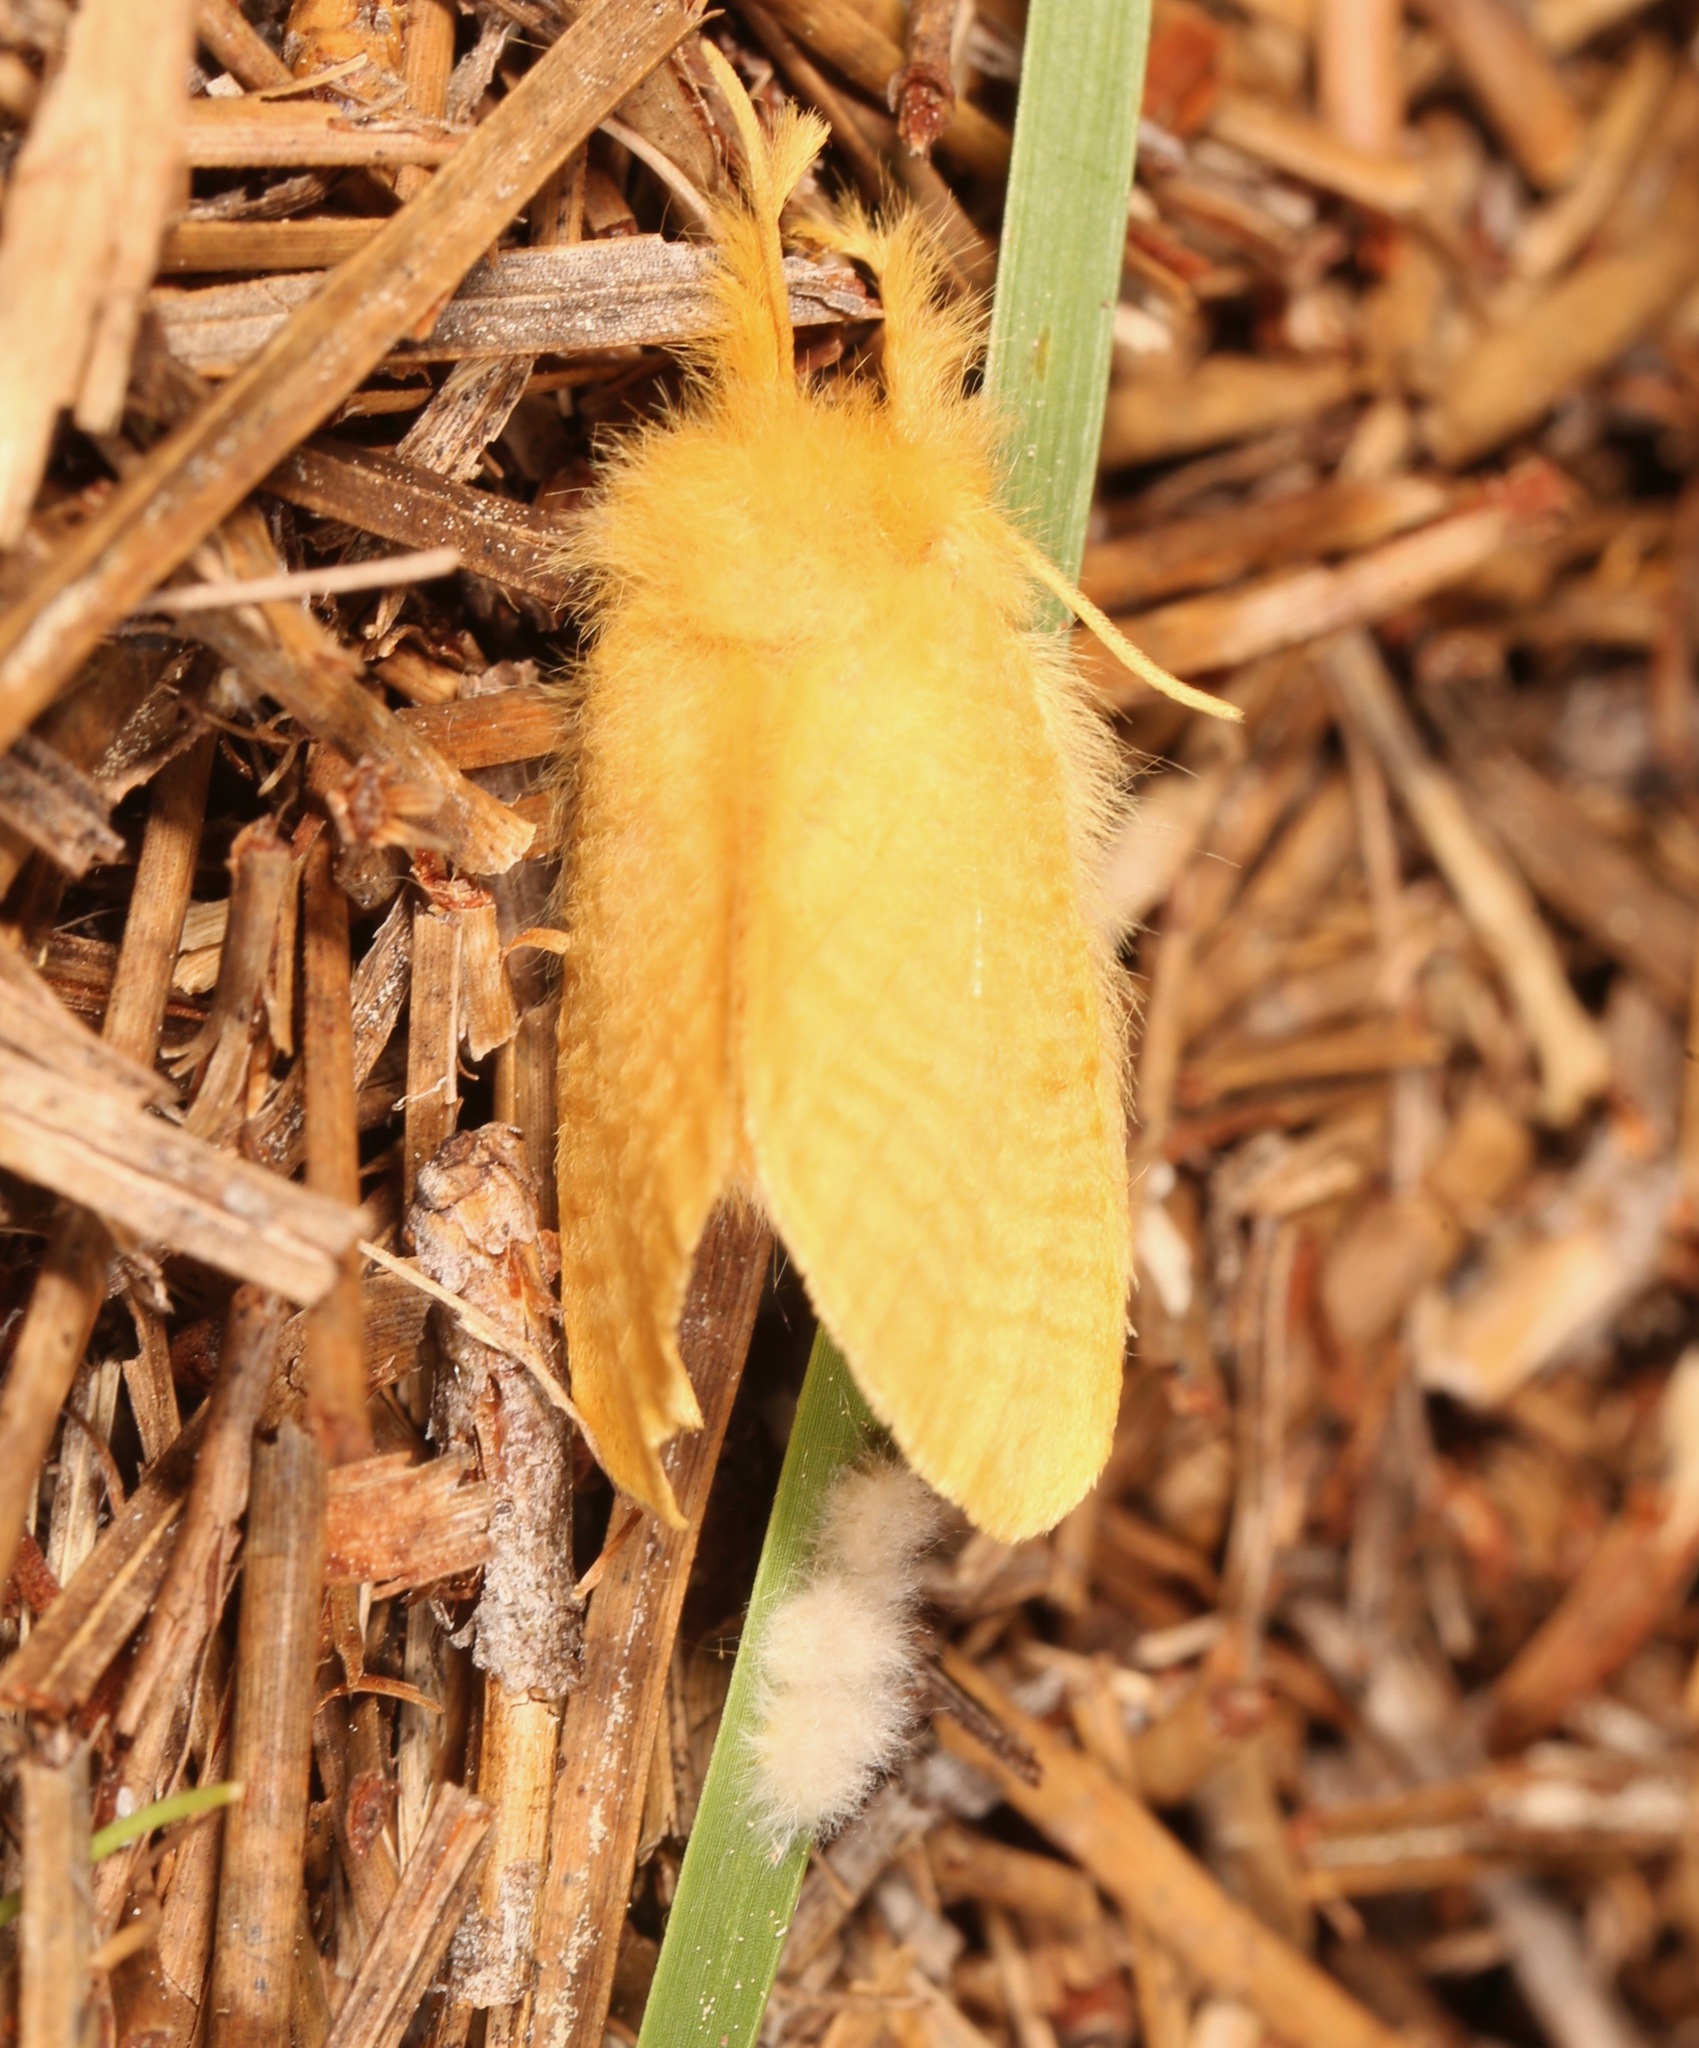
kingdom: Animalia
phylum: Arthropoda
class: Insecta
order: Lepidoptera
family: Megalopygidae
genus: Megalopyge
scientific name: Megalopyge pixidifera
